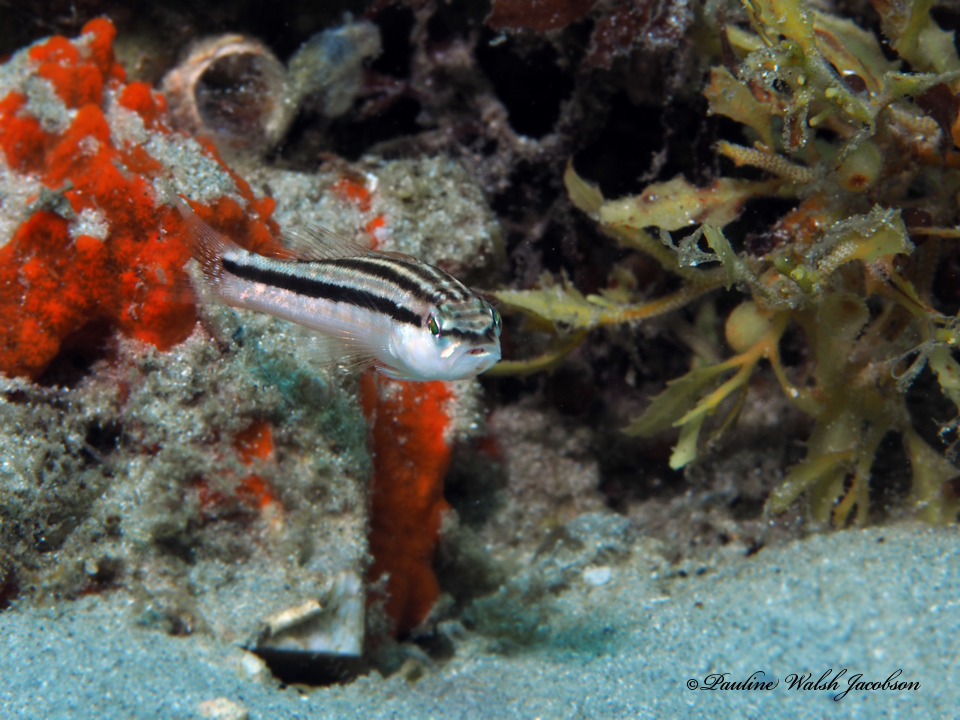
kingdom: Animalia
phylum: Chordata
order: Perciformes
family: Serranidae
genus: Diplectrum
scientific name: Diplectrum formosum
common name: Sand perch
